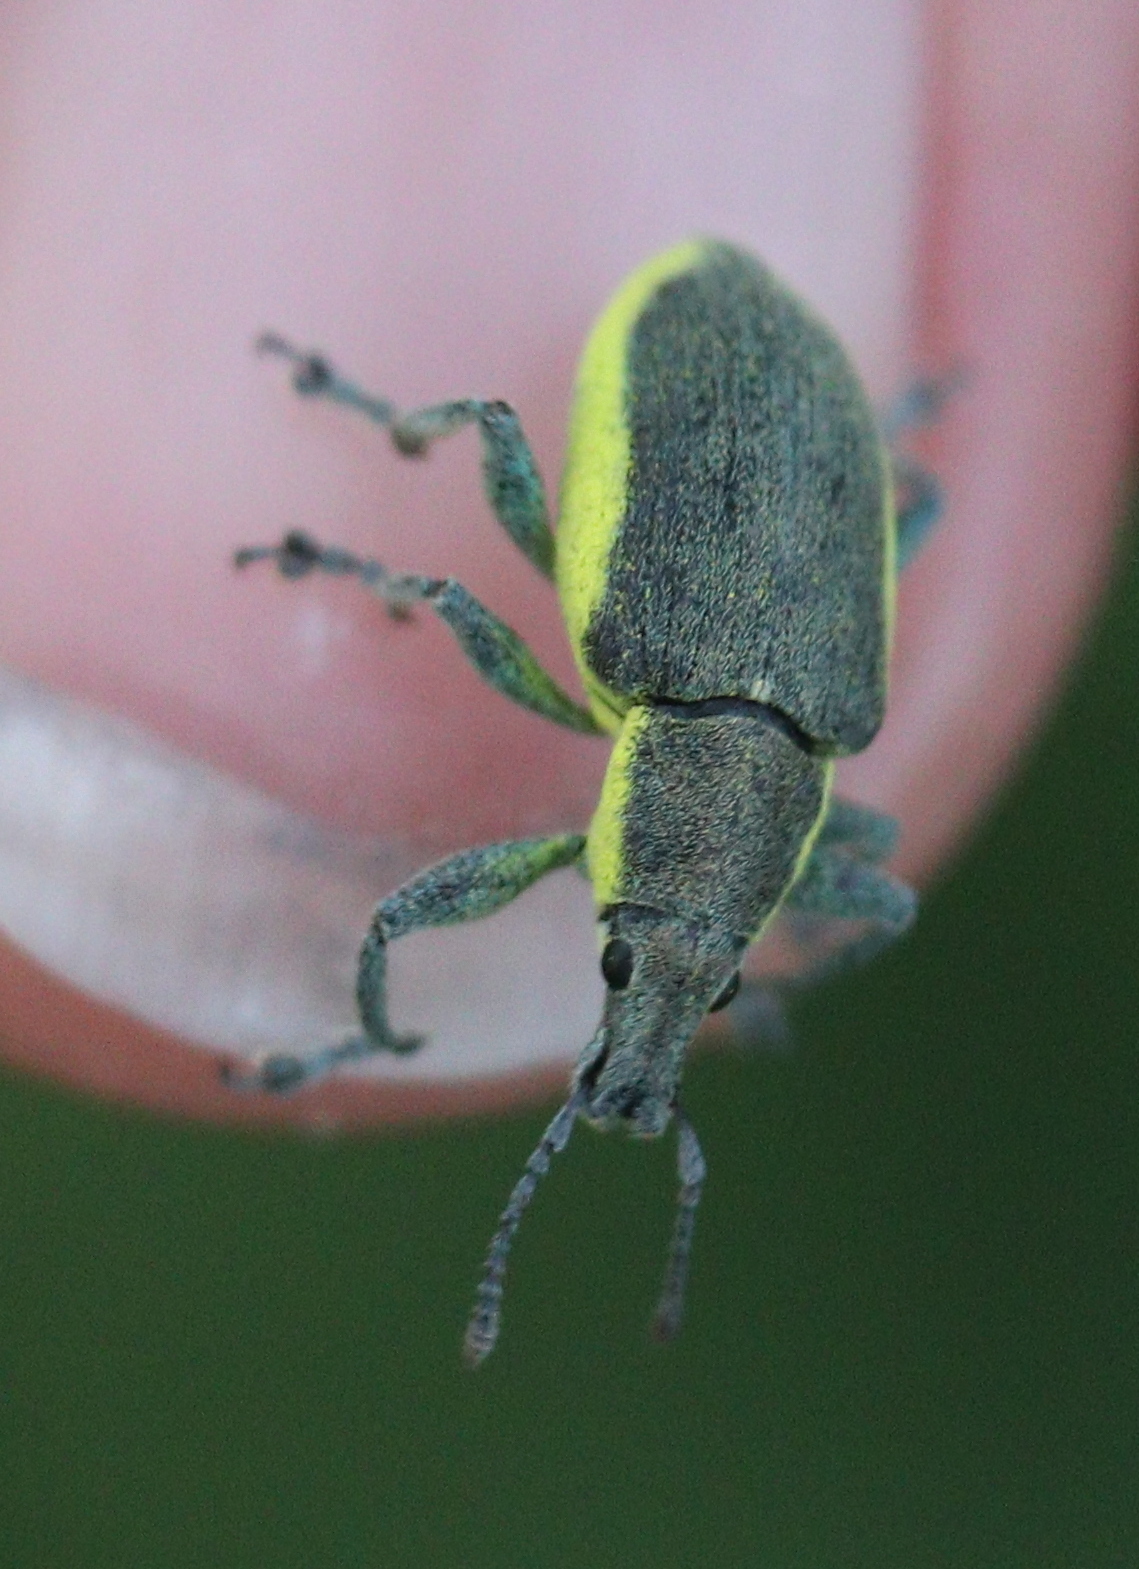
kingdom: Animalia
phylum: Arthropoda
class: Insecta
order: Coleoptera
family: Curculionidae
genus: Chlorophanus
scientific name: Chlorophanus viridis
